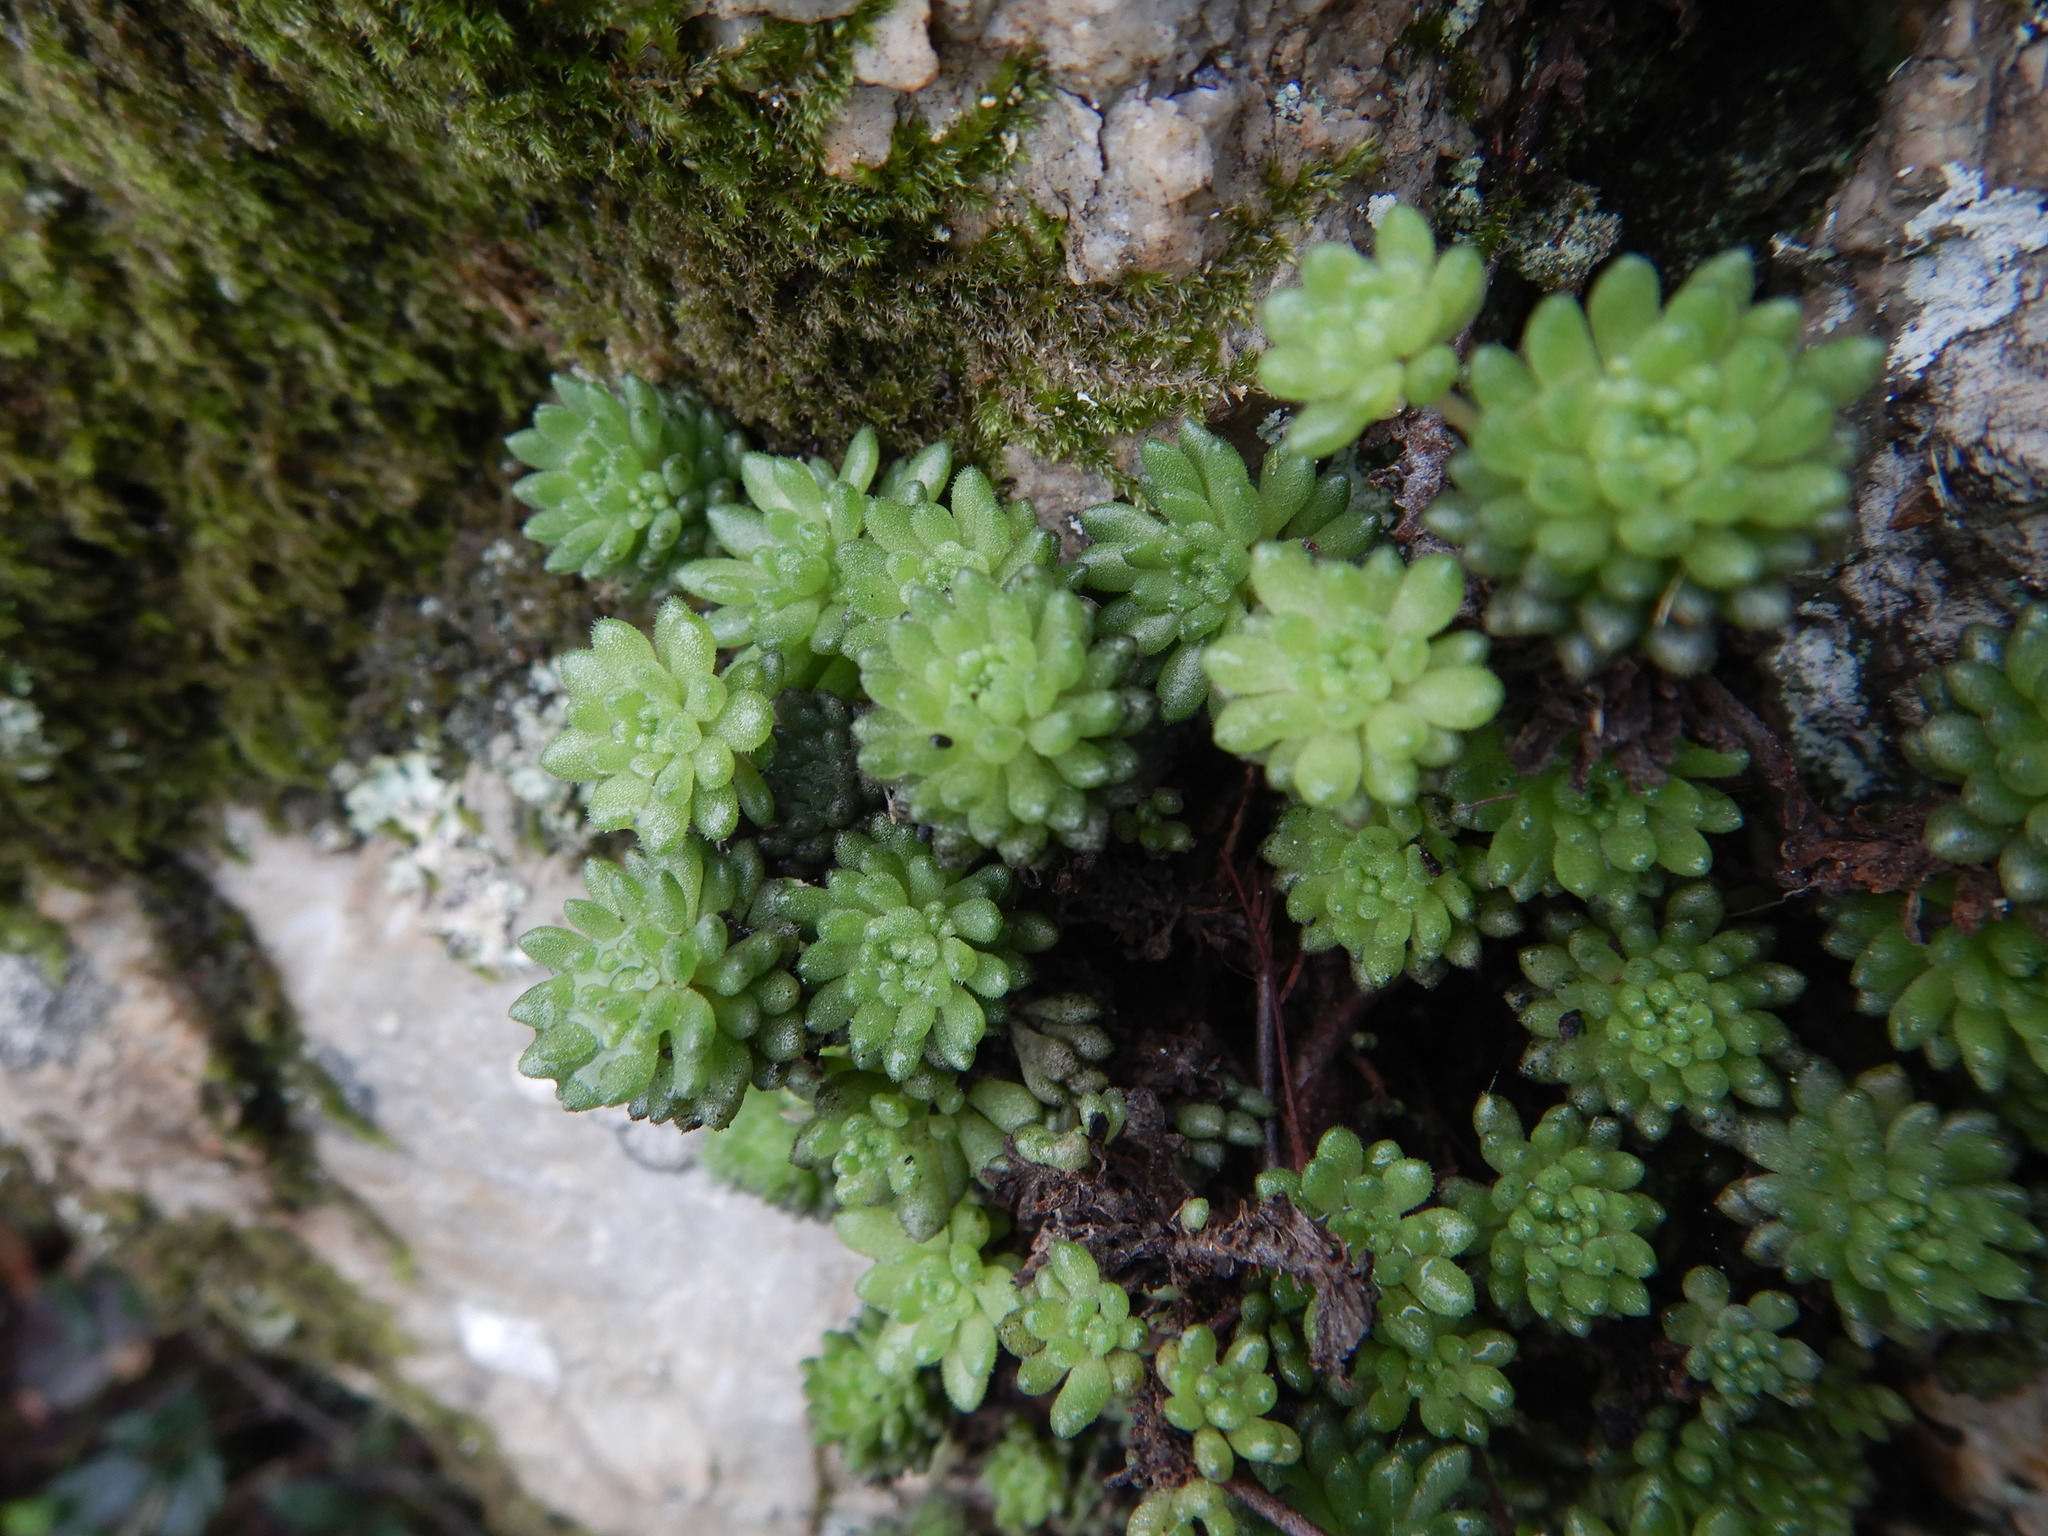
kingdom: Plantae
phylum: Tracheophyta
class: Magnoliopsida
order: Saxifragales
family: Crassulaceae
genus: Sedum
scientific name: Sedum hirsutum
